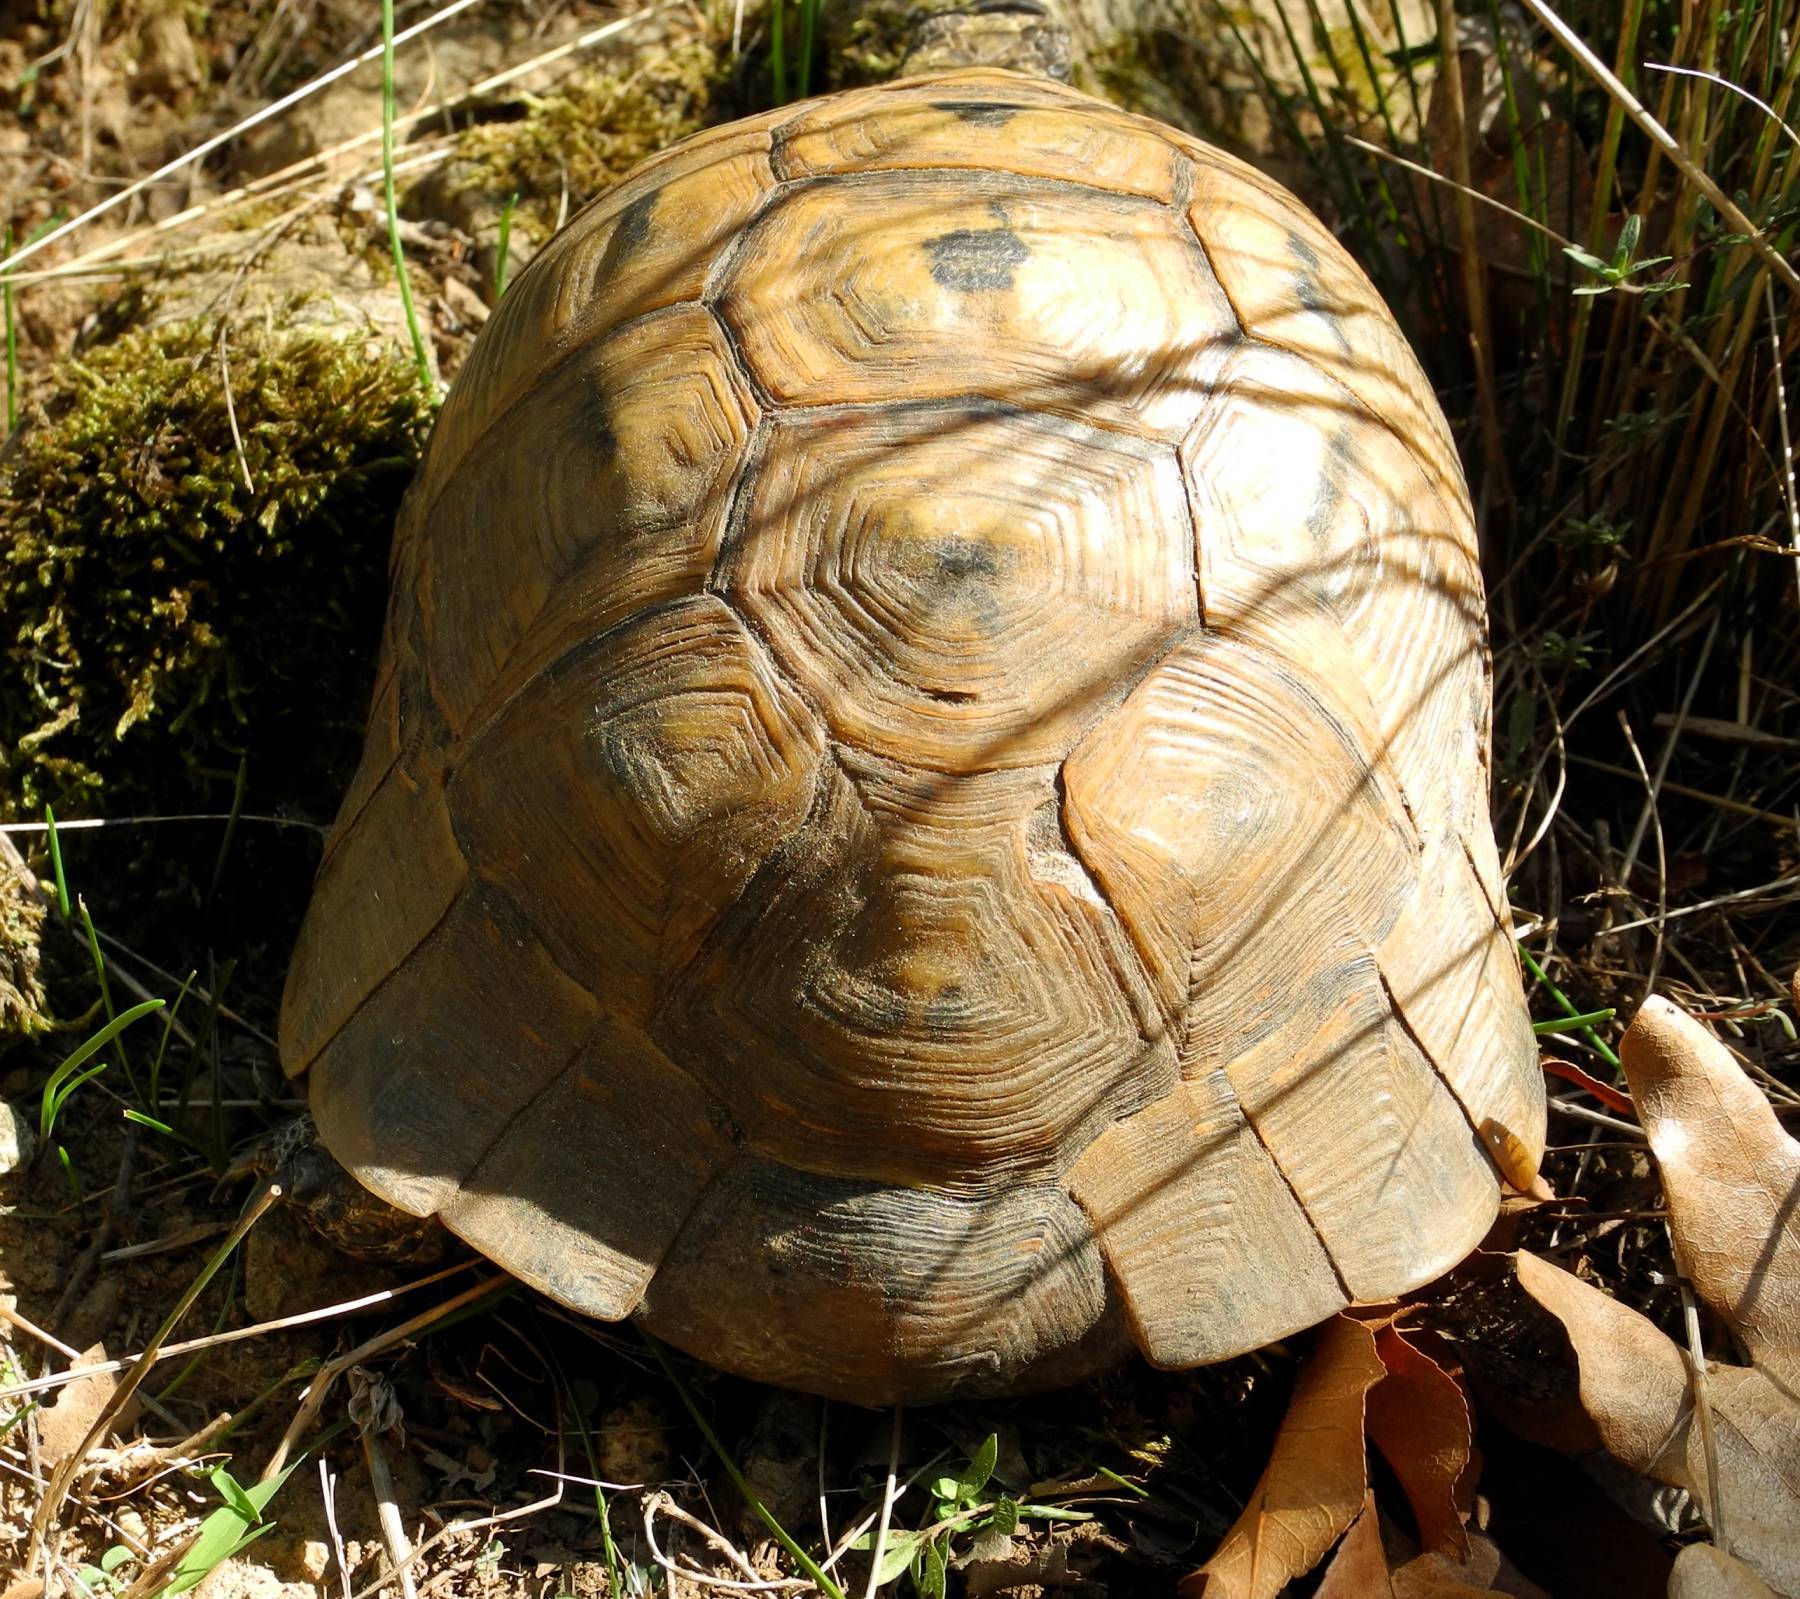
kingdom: Animalia
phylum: Chordata
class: Testudines
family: Testudinidae
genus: Testudo
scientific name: Testudo graeca
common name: Common tortoise
